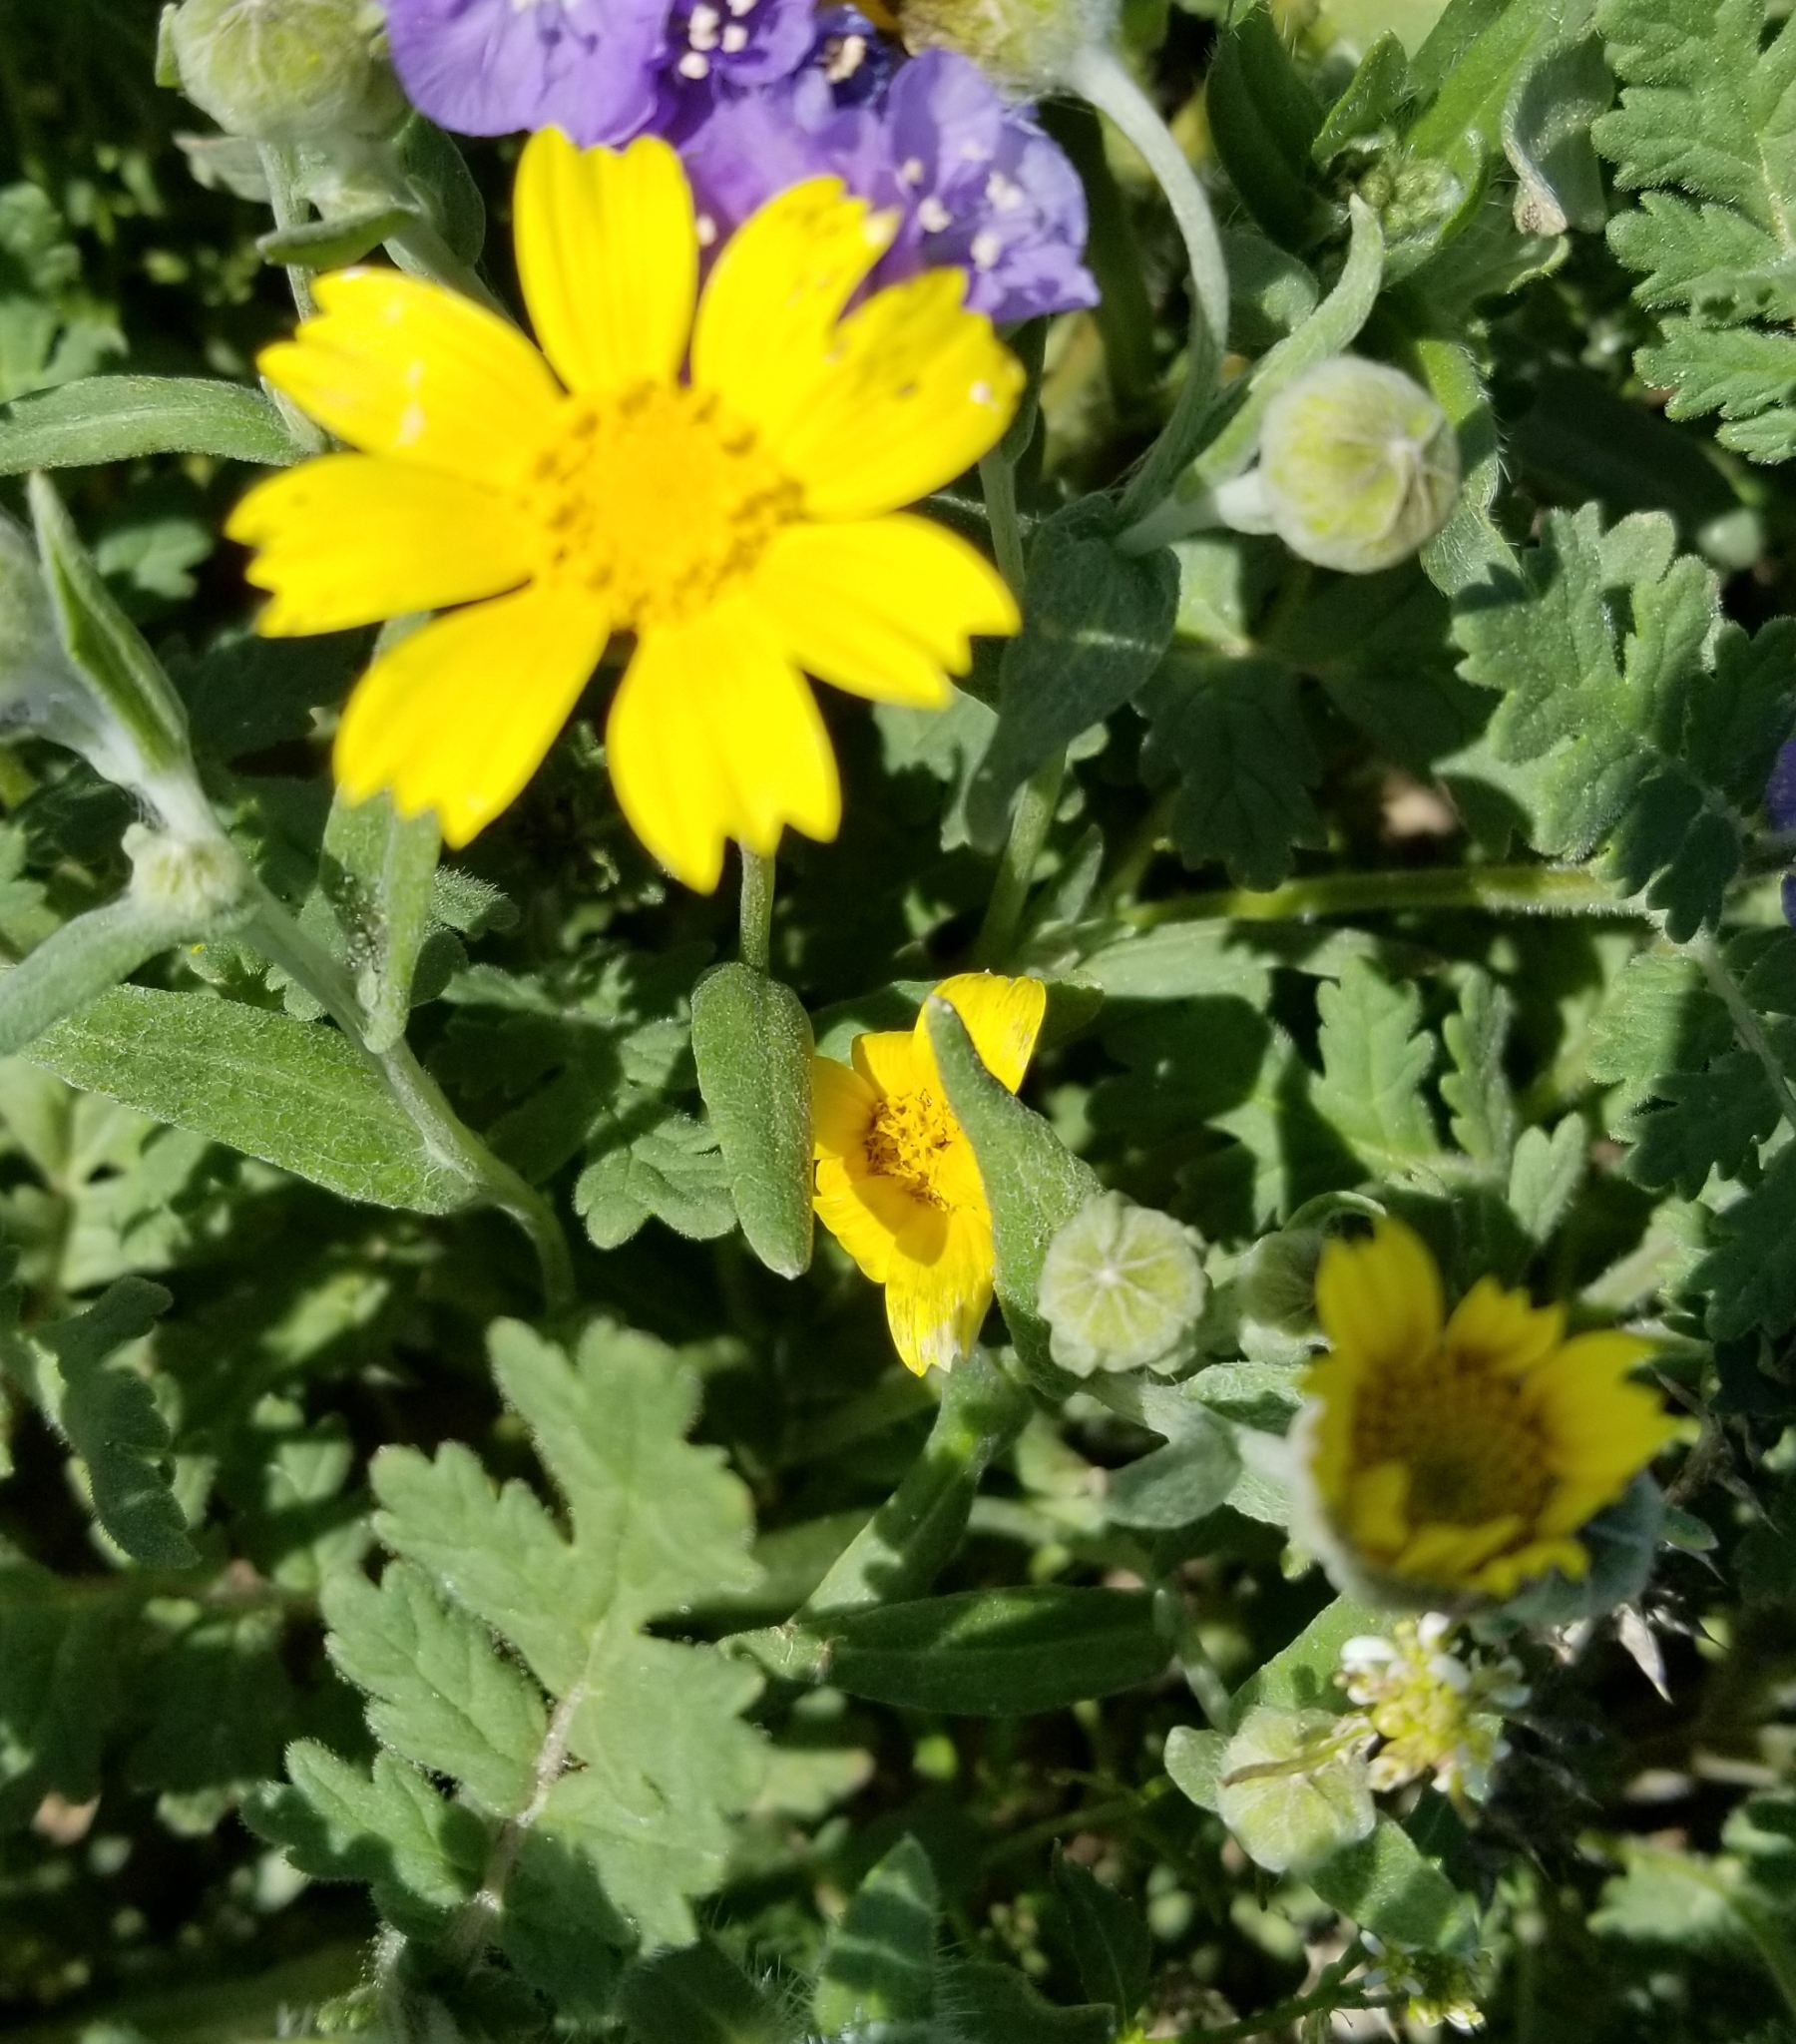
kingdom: Plantae
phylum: Tracheophyta
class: Magnoliopsida
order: Asterales
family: Asteraceae
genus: Monolopia
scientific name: Monolopia lanceolata
